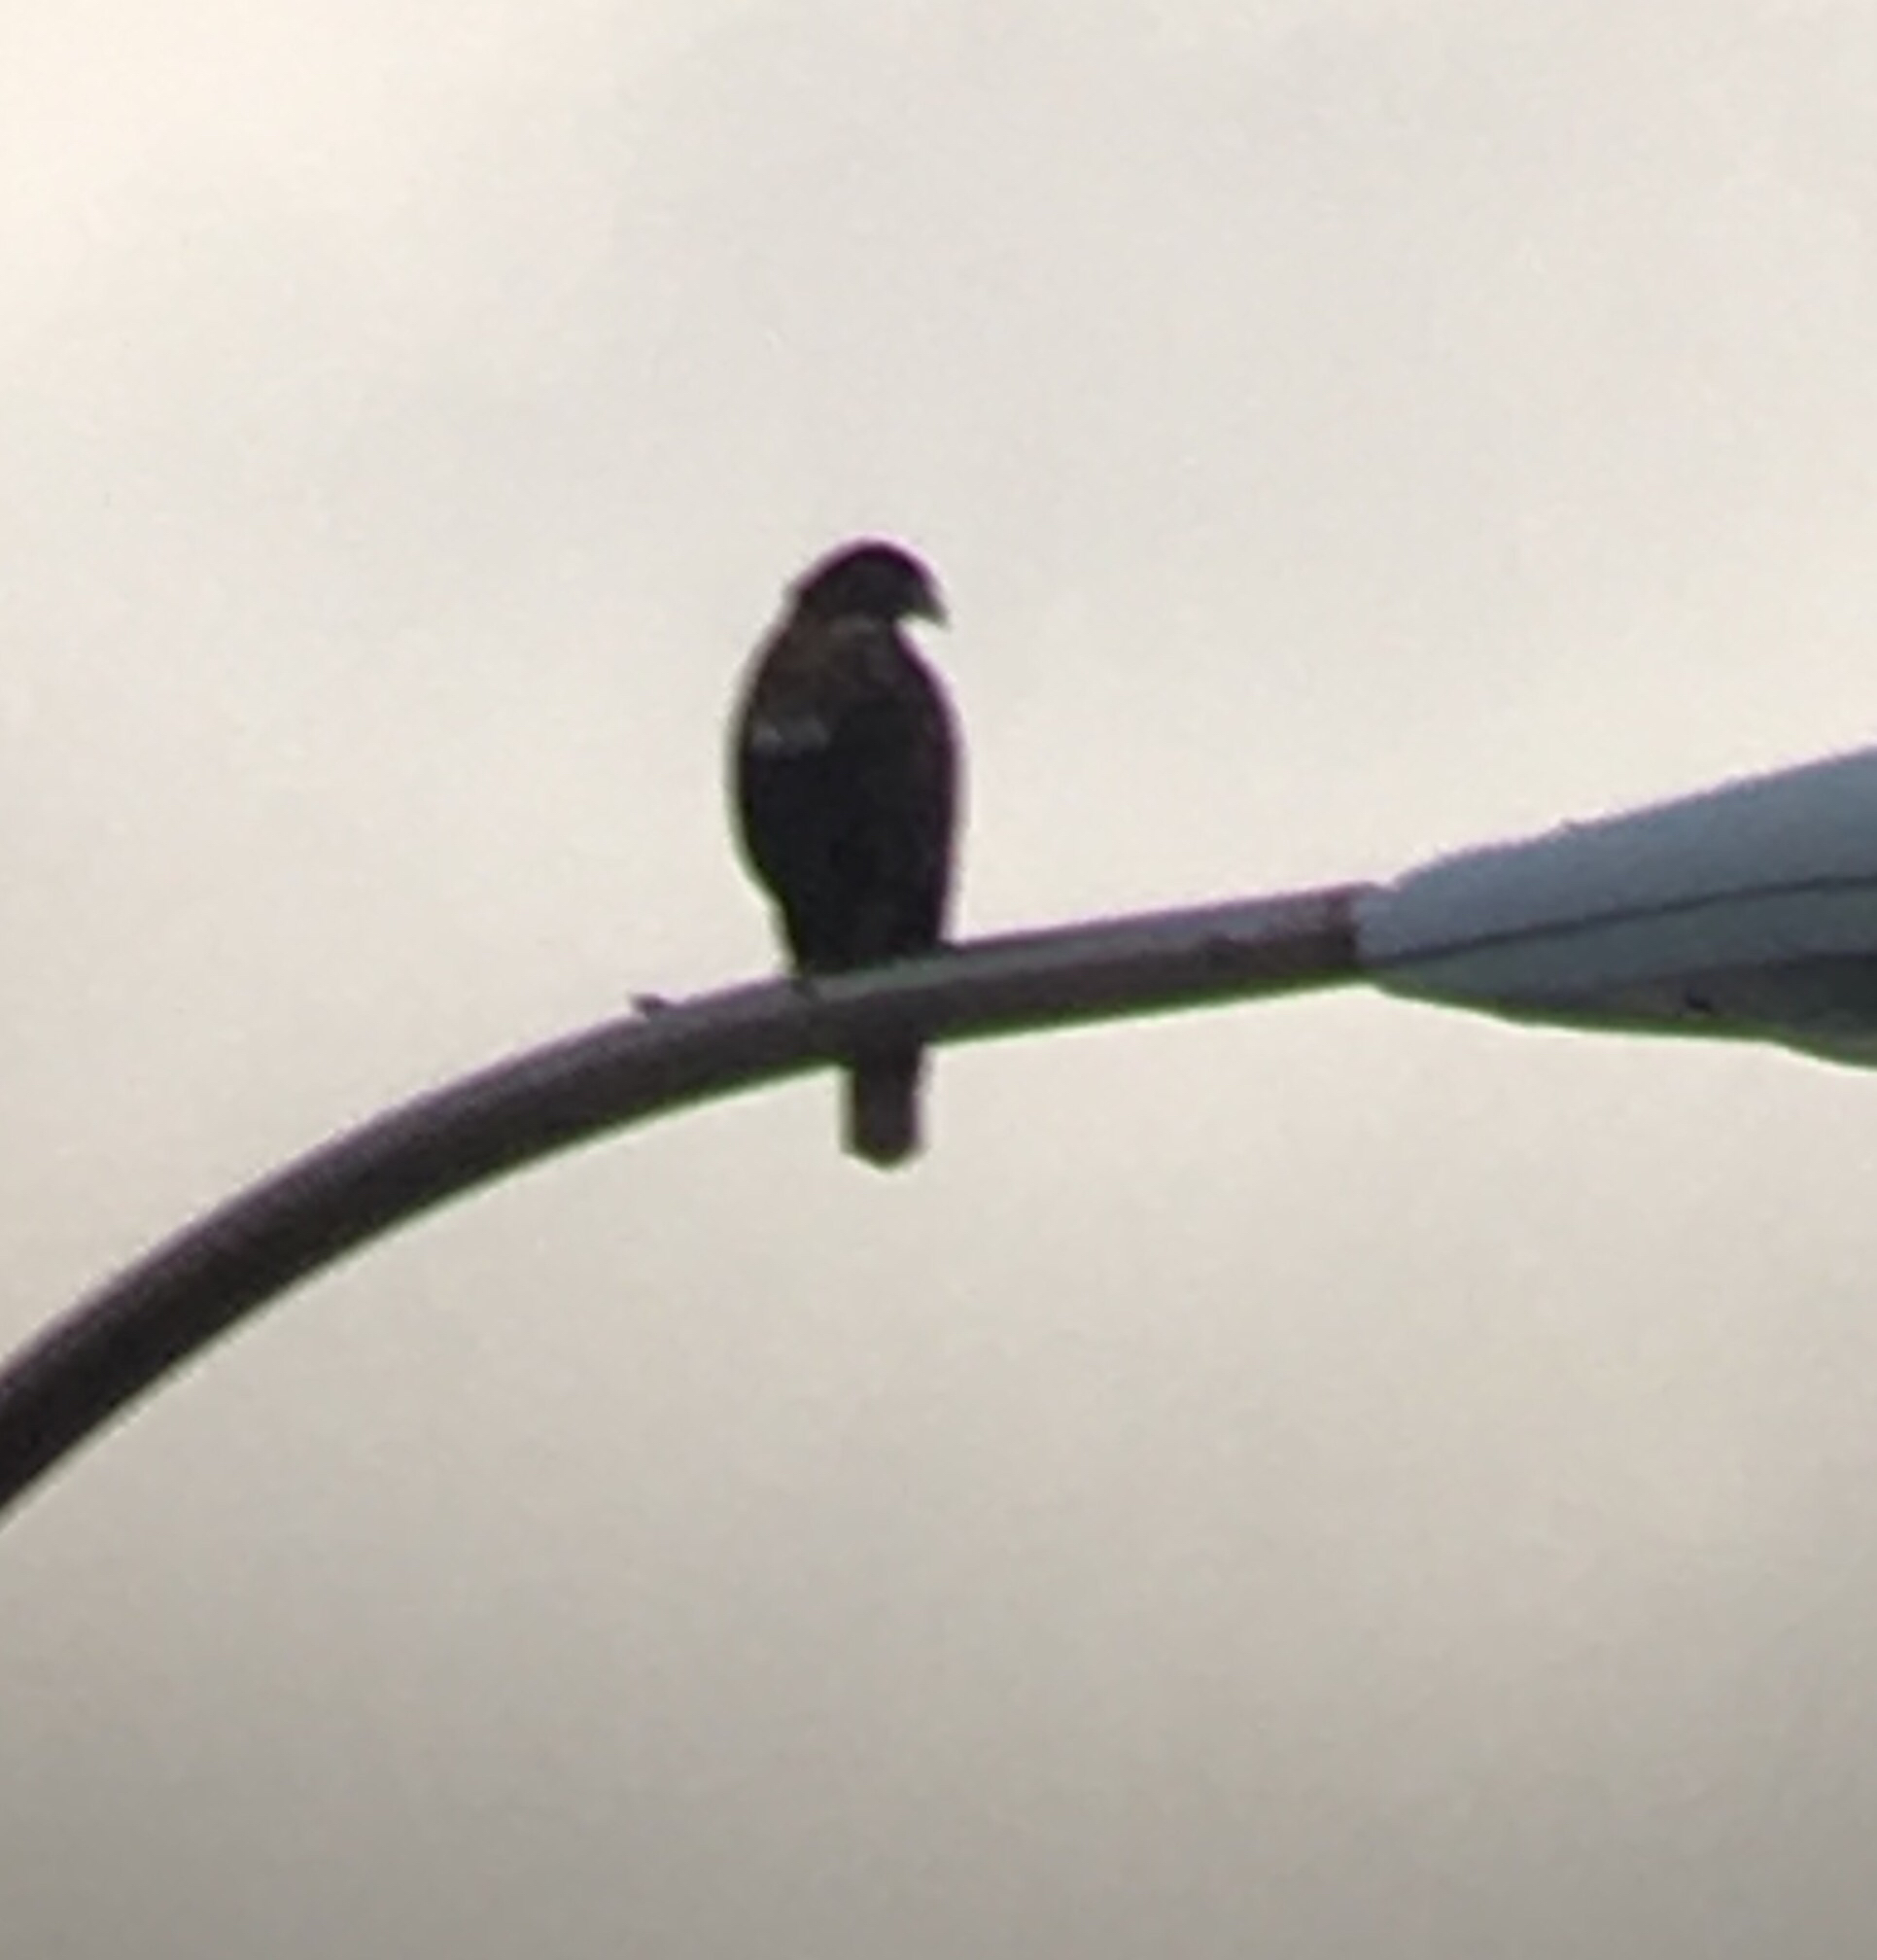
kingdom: Animalia
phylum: Chordata
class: Aves
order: Accipitriformes
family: Accipitridae
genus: Buteo
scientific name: Buteo jamaicensis
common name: Red-tailed hawk
